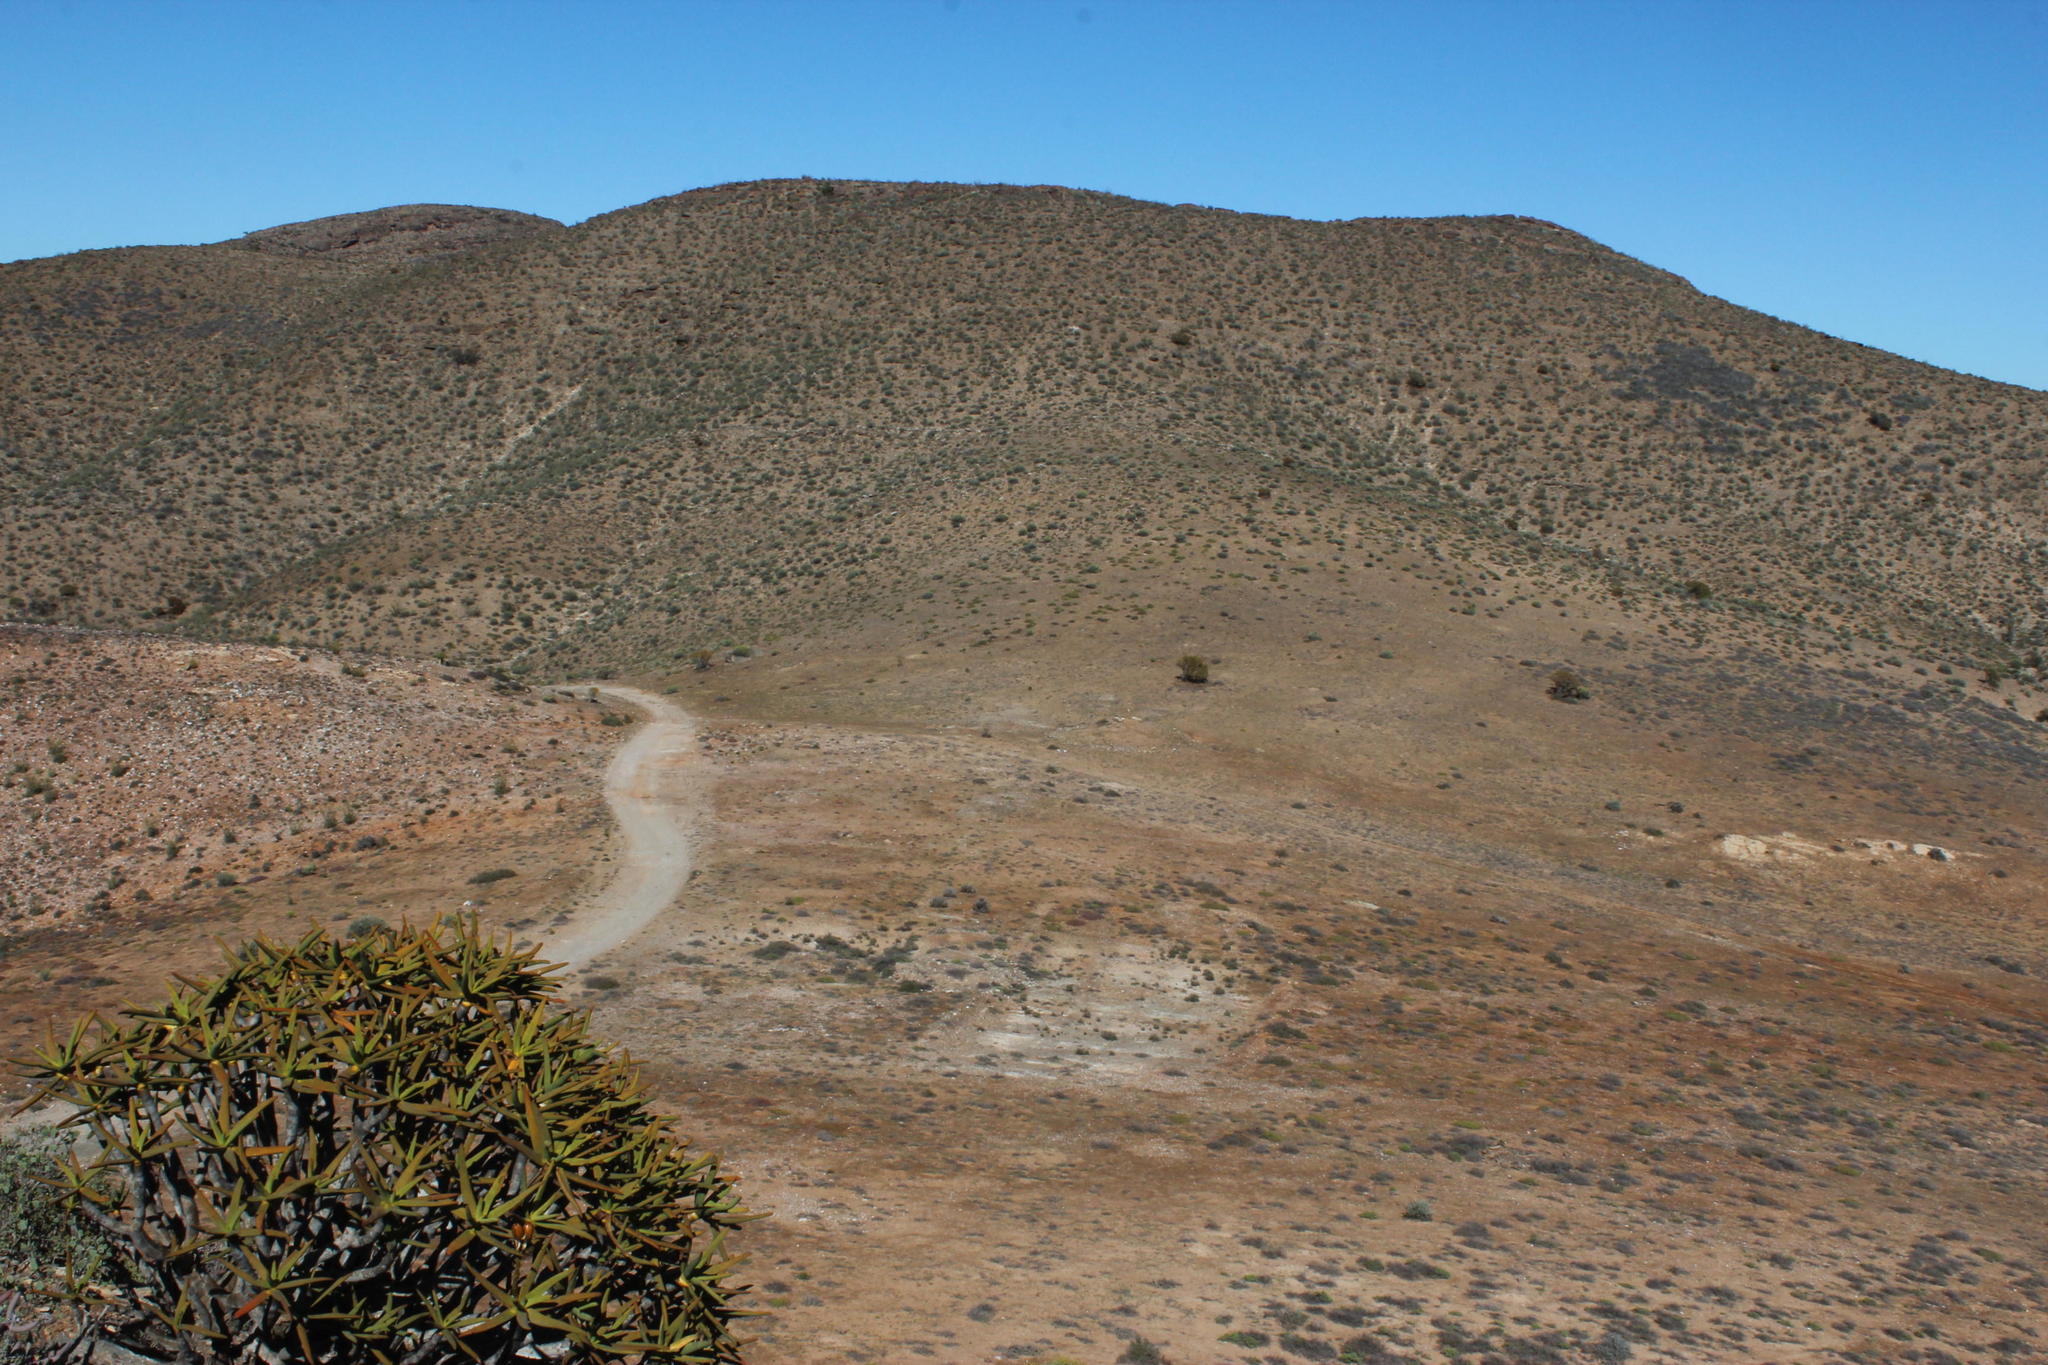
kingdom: Plantae
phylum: Tracheophyta
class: Liliopsida
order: Asparagales
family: Asphodelaceae
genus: Aloidendron
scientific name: Aloidendron ramosissimum
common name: Bush quiver tree
